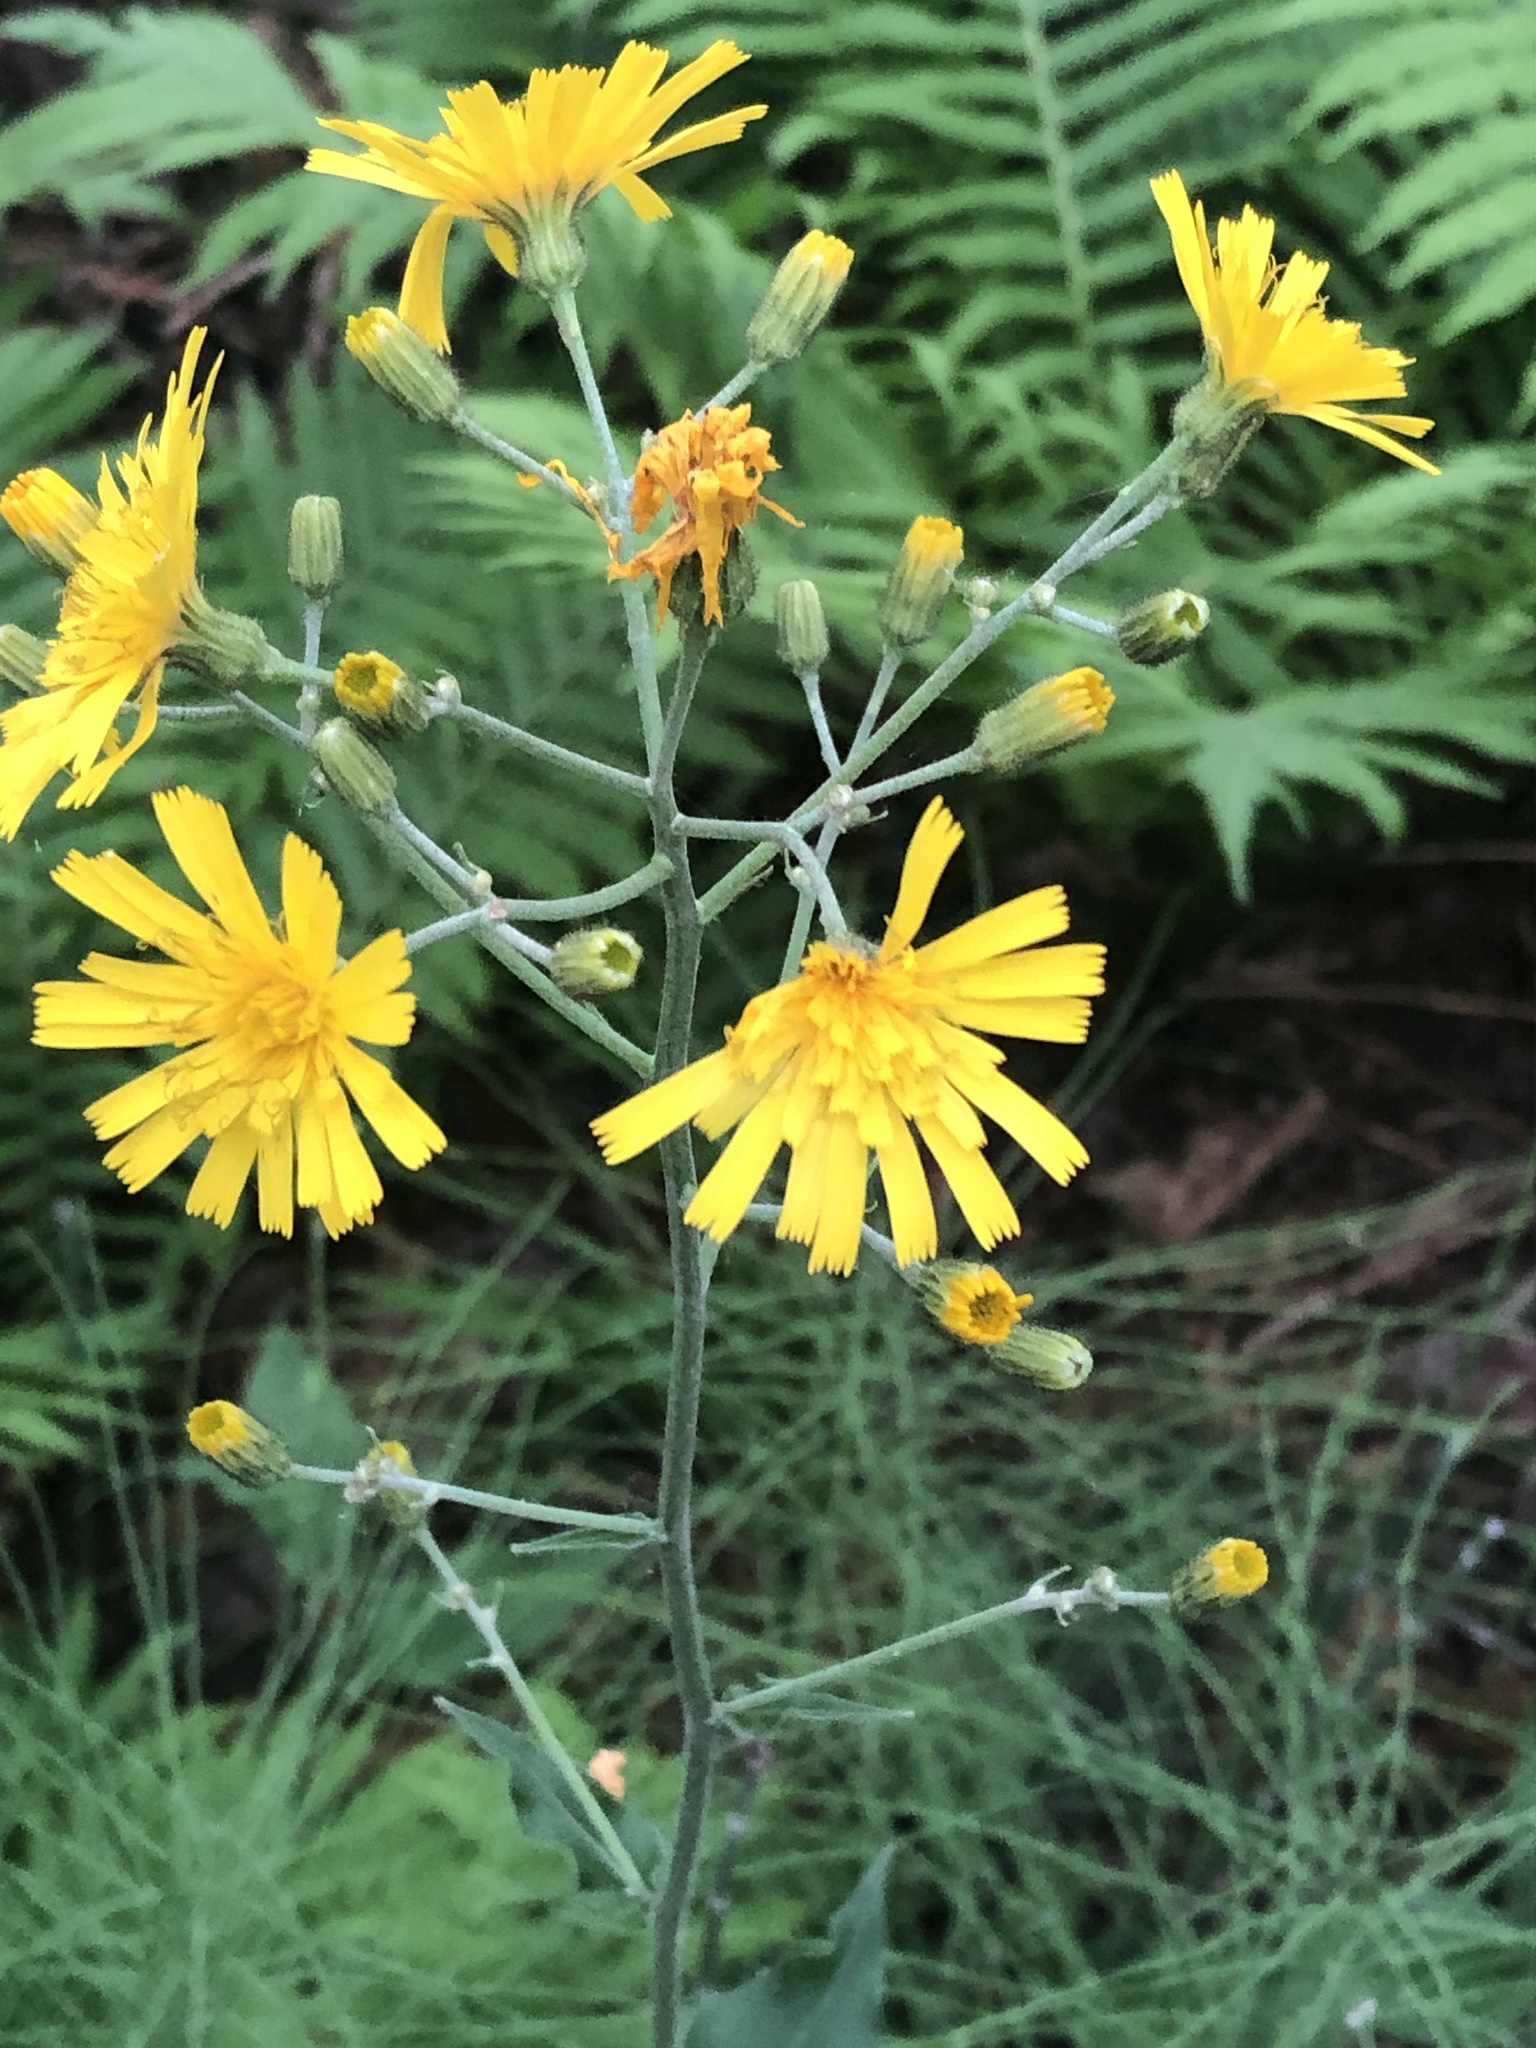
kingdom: Plantae
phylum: Tracheophyta
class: Magnoliopsida
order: Asterales
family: Asteraceae
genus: Hieracium
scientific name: Hieracium lachenalii
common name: Common hawkweed
